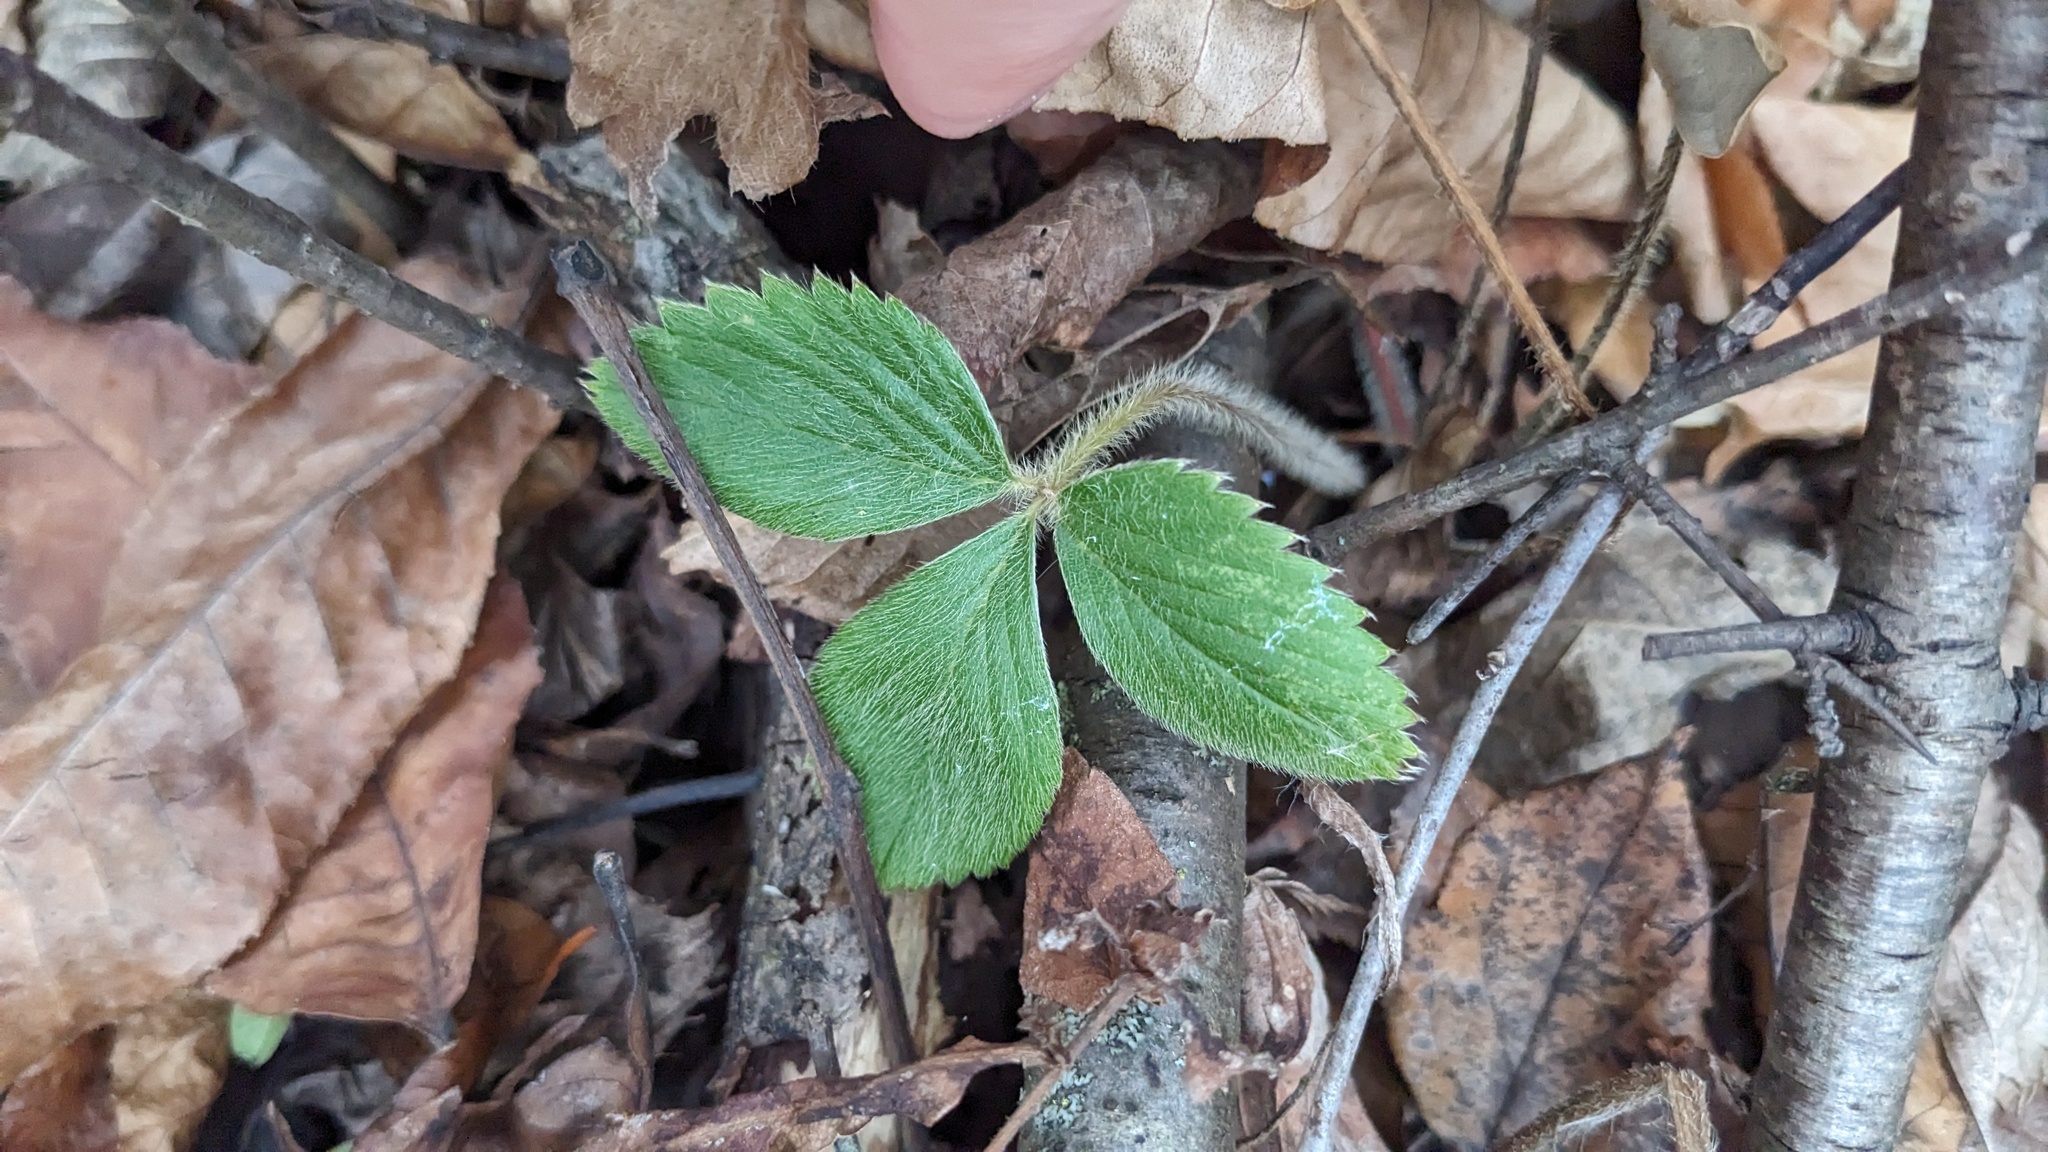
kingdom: Plantae
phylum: Tracheophyta
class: Magnoliopsida
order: Rosales
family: Rosaceae
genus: Fragaria
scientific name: Fragaria virginiana
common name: Thickleaved wild strawberry
